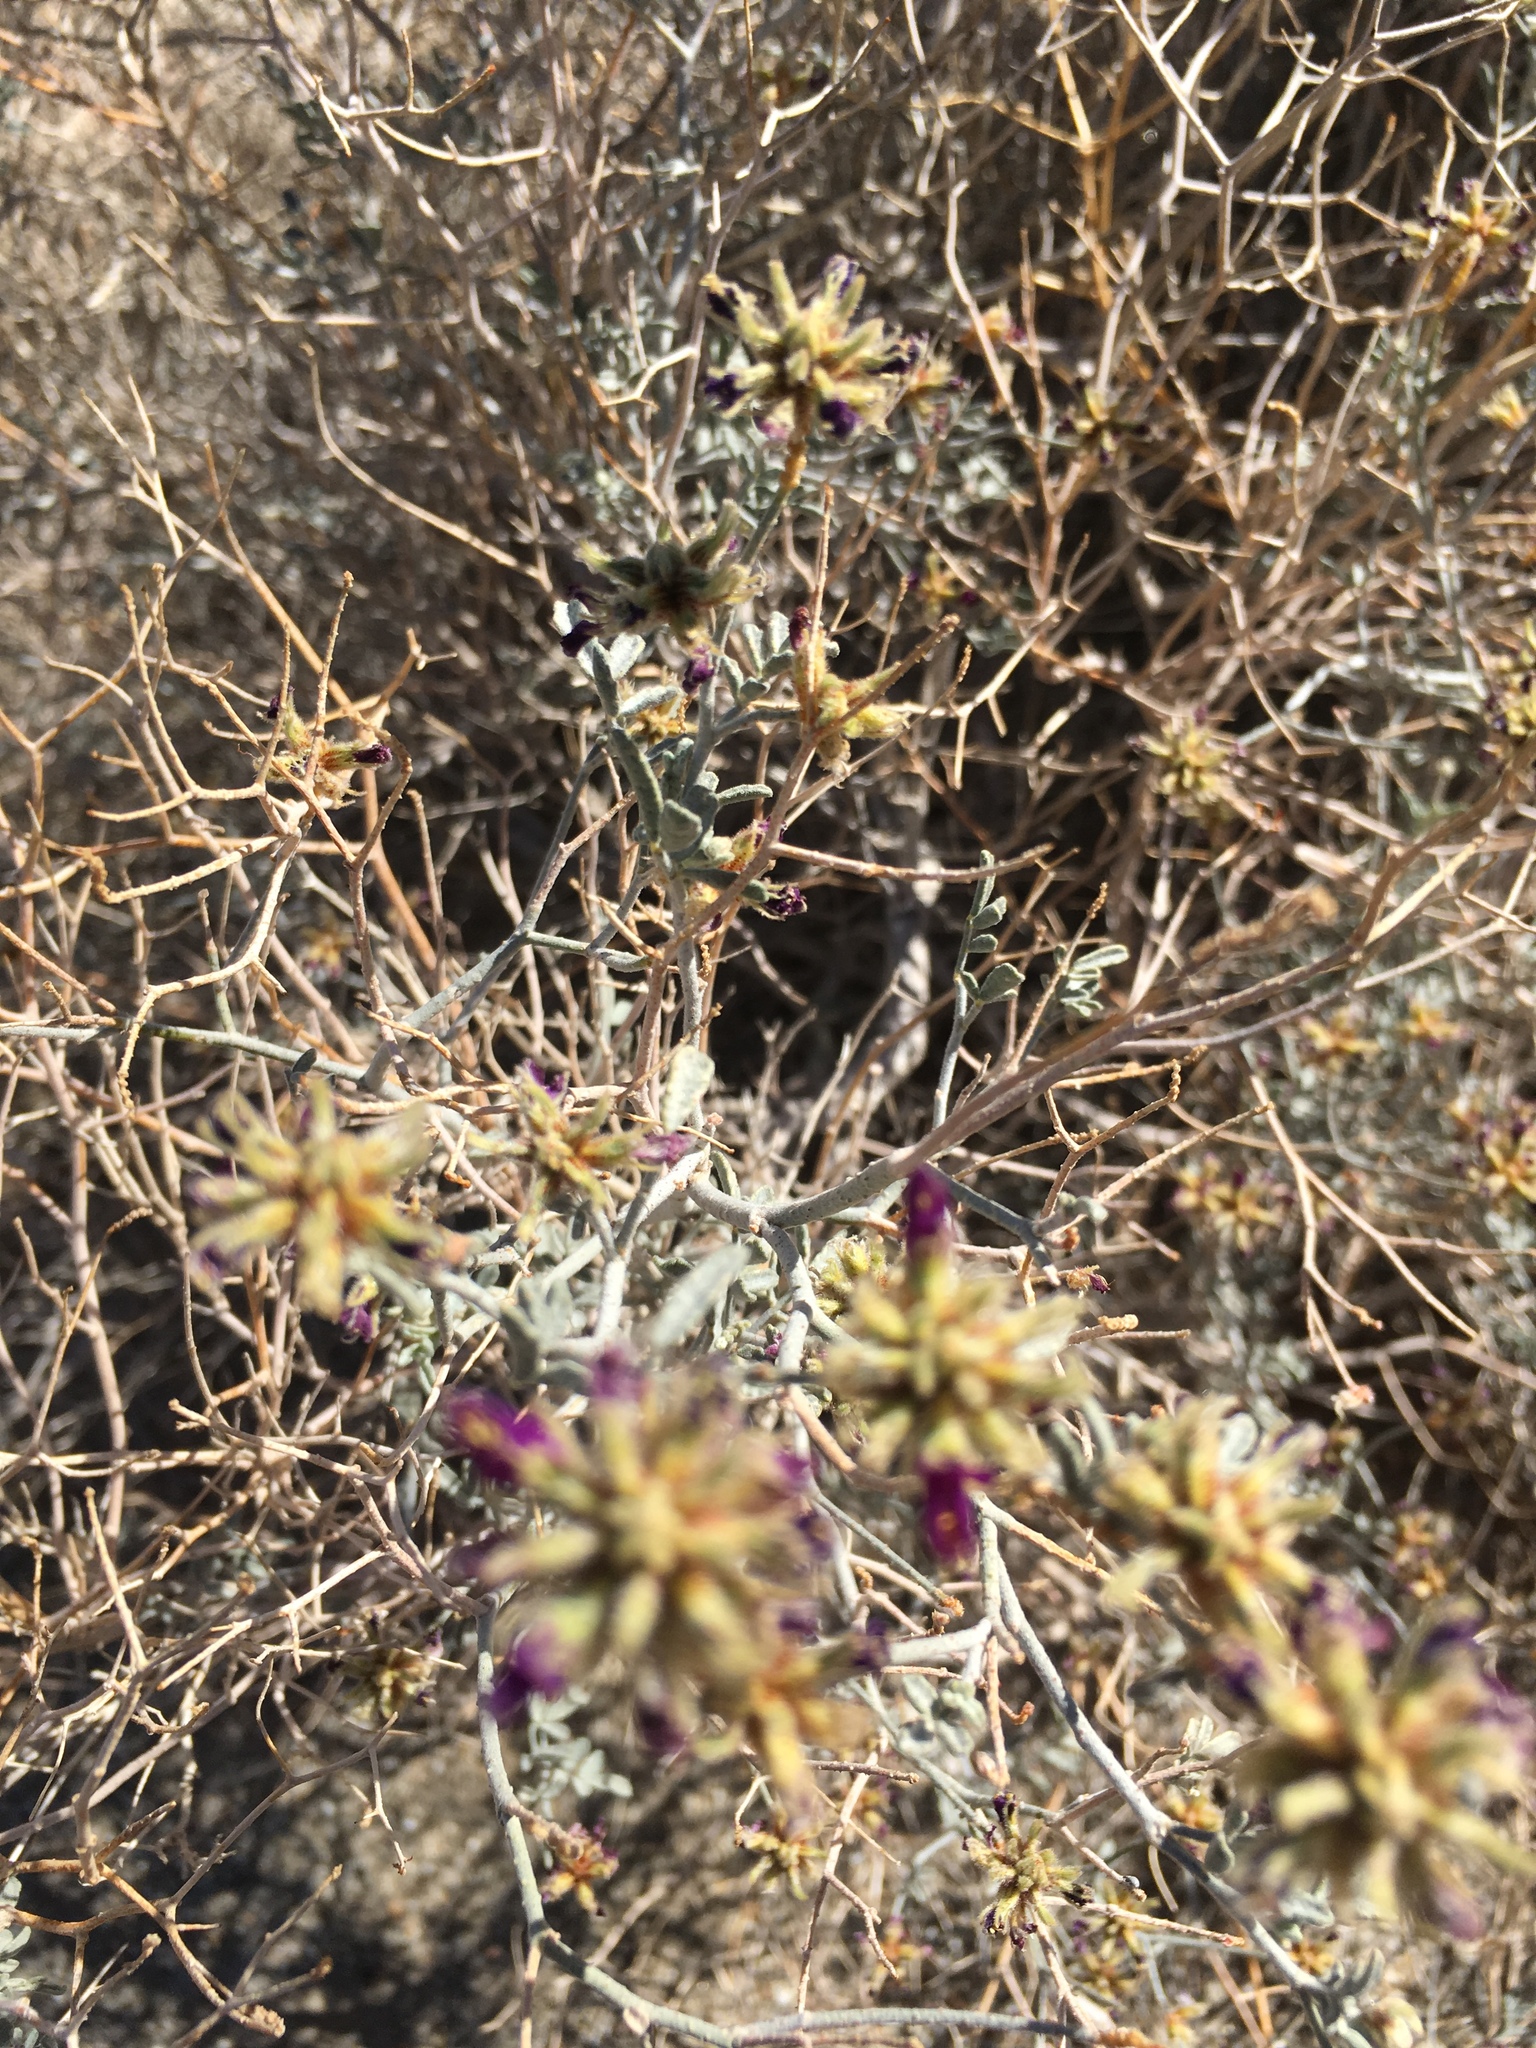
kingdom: Plantae
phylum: Tracheophyta
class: Magnoliopsida
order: Fabales
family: Fabaceae
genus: Psorothamnus
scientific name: Psorothamnus emoryi
